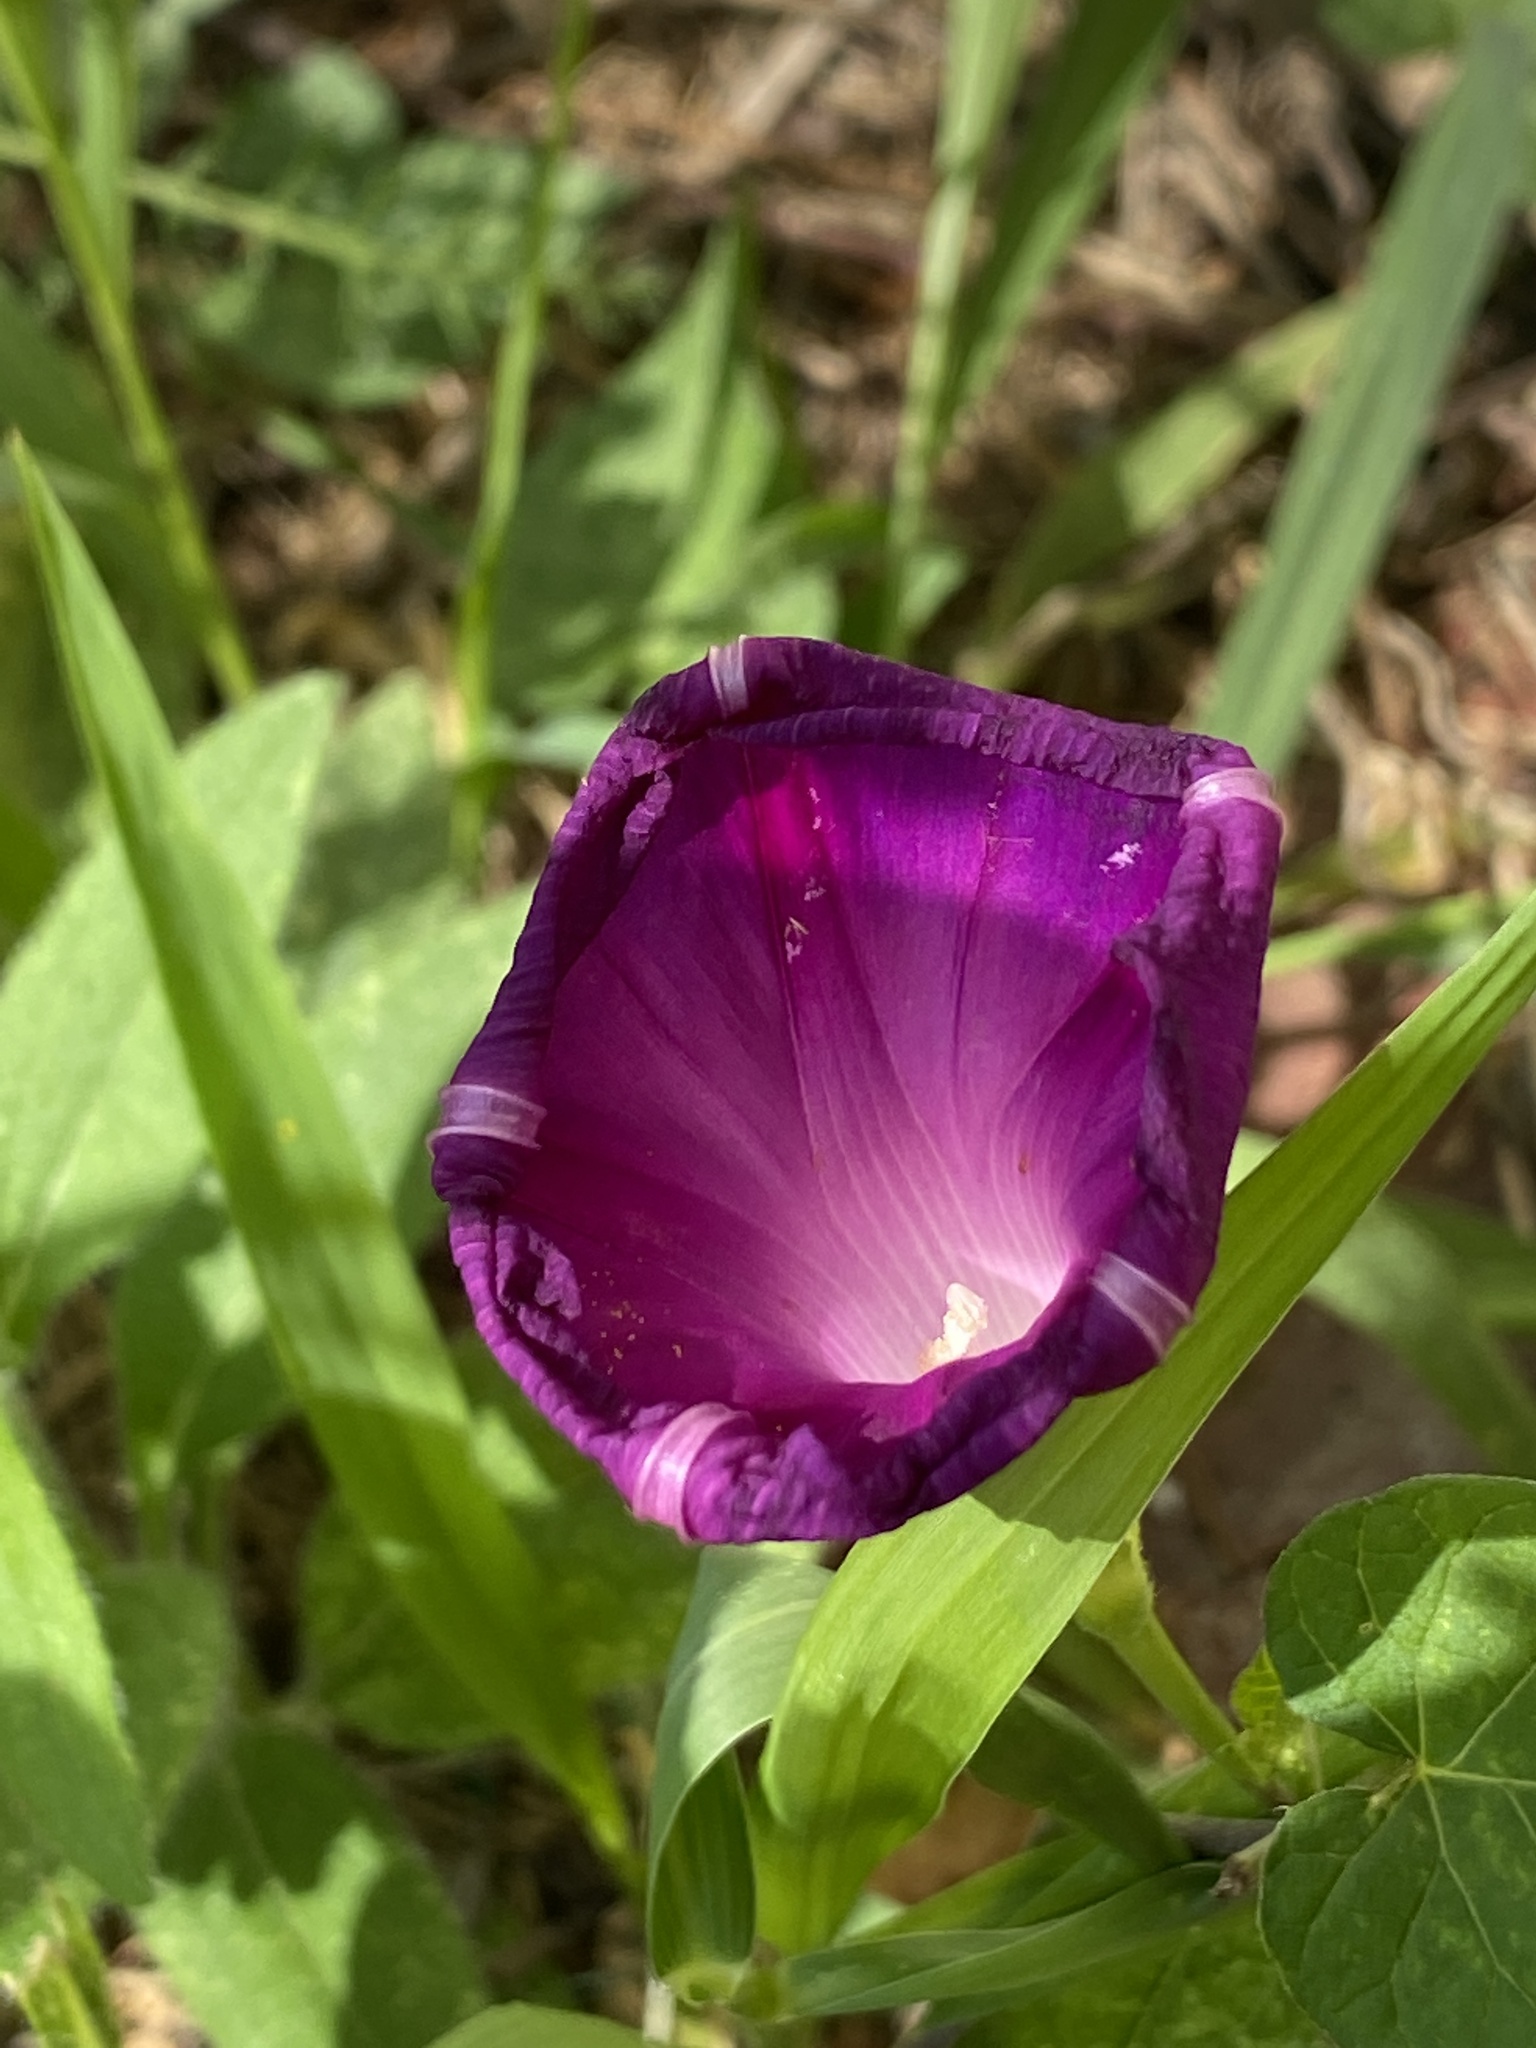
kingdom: Plantae
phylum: Tracheophyta
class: Magnoliopsida
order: Solanales
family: Convolvulaceae
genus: Ipomoea
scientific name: Ipomoea purpurea
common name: Common morning-glory
